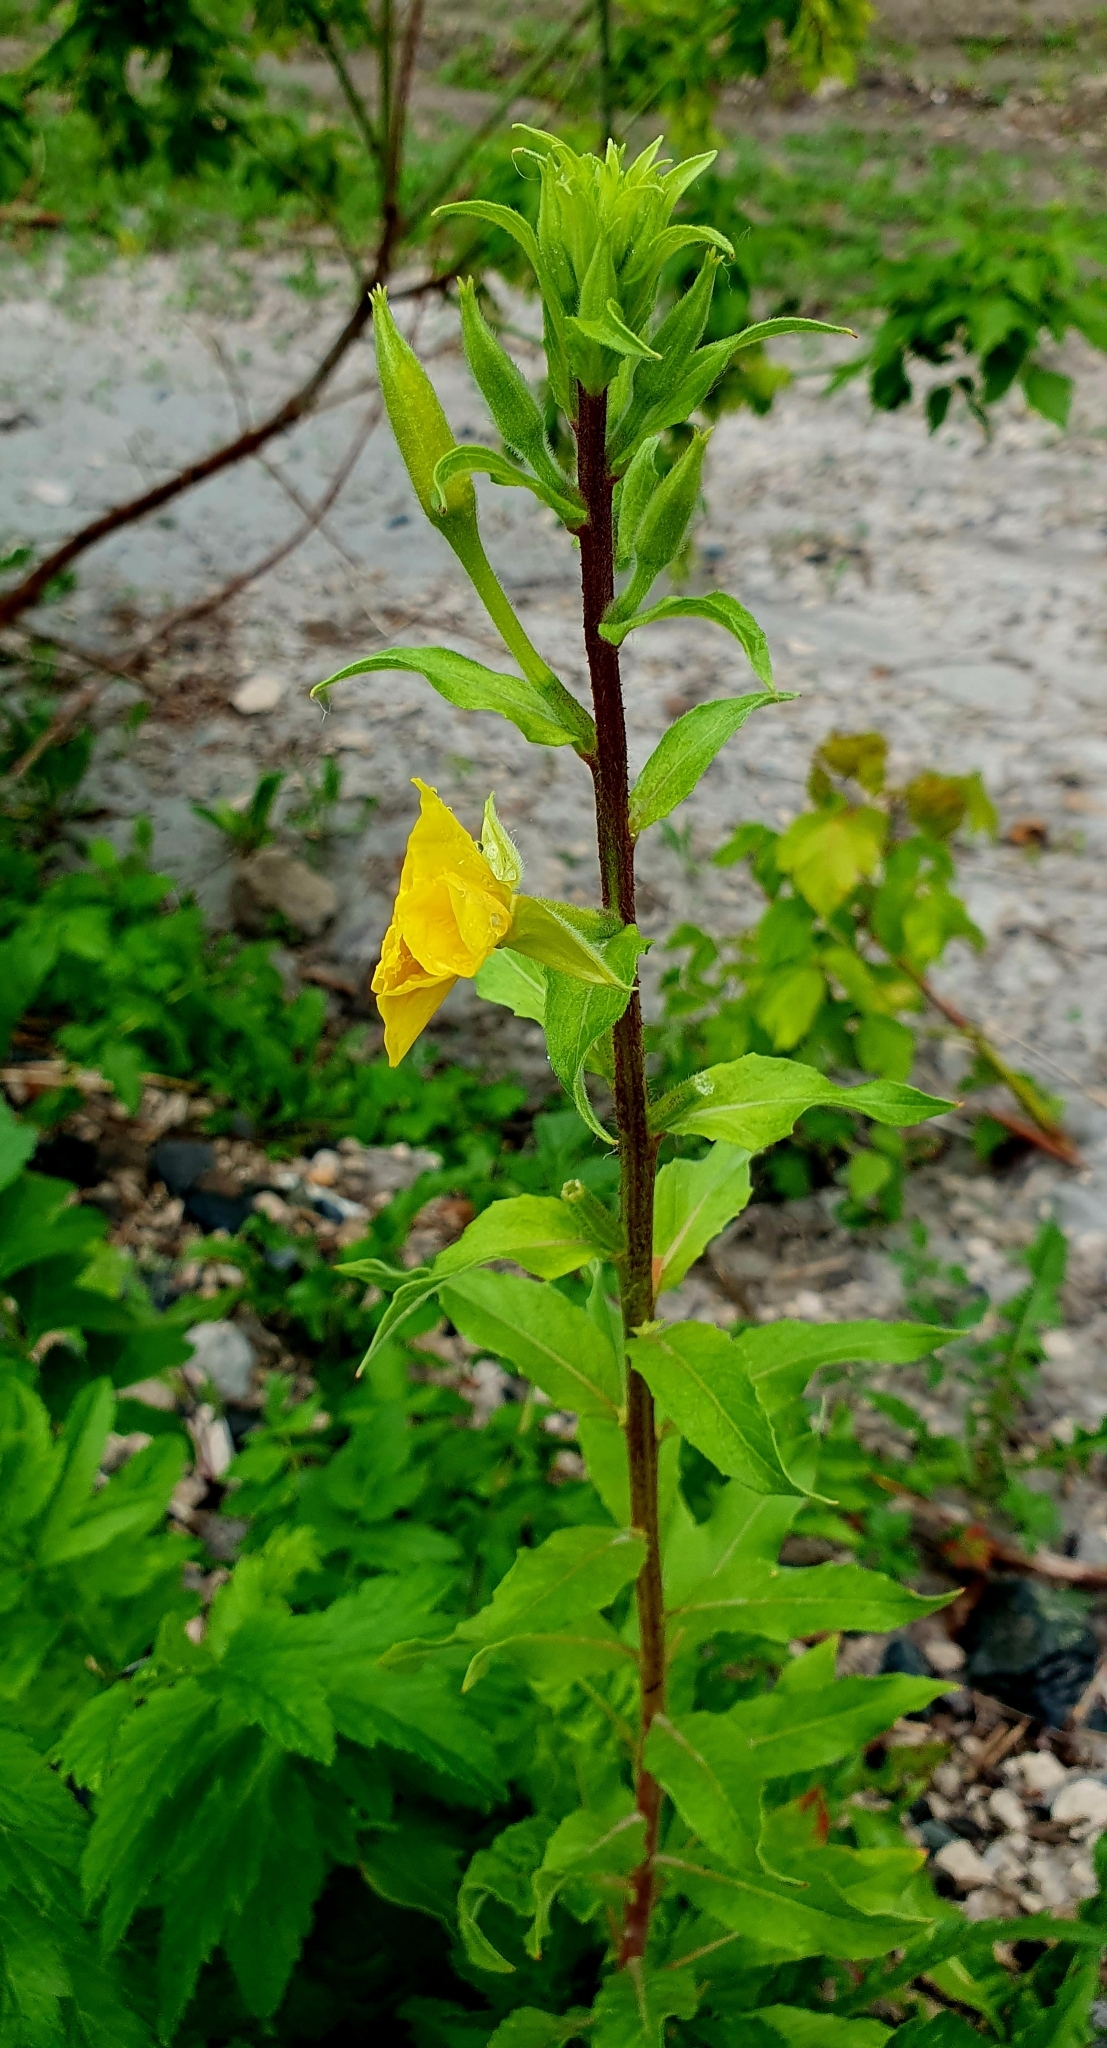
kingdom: Plantae
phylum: Tracheophyta
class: Magnoliopsida
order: Myrtales
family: Onagraceae
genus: Oenothera
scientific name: Oenothera rubricaulis
